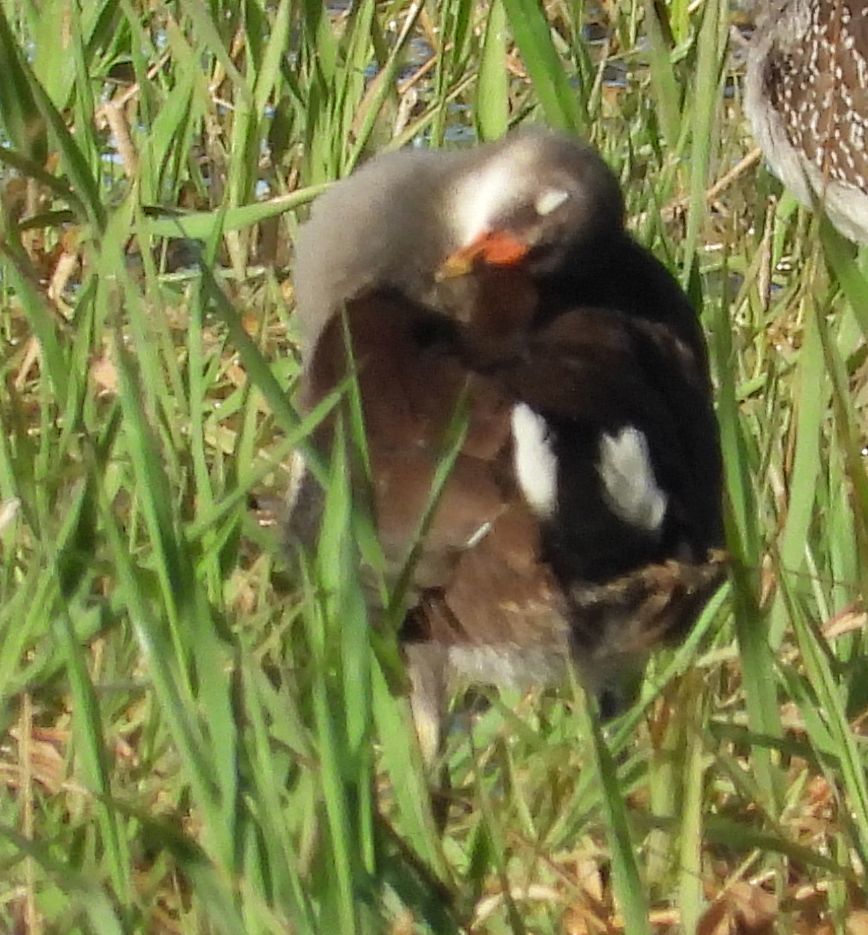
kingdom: Animalia
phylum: Chordata
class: Aves
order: Gruiformes
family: Rallidae
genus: Gallinula
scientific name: Gallinula chloropus
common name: Common moorhen
